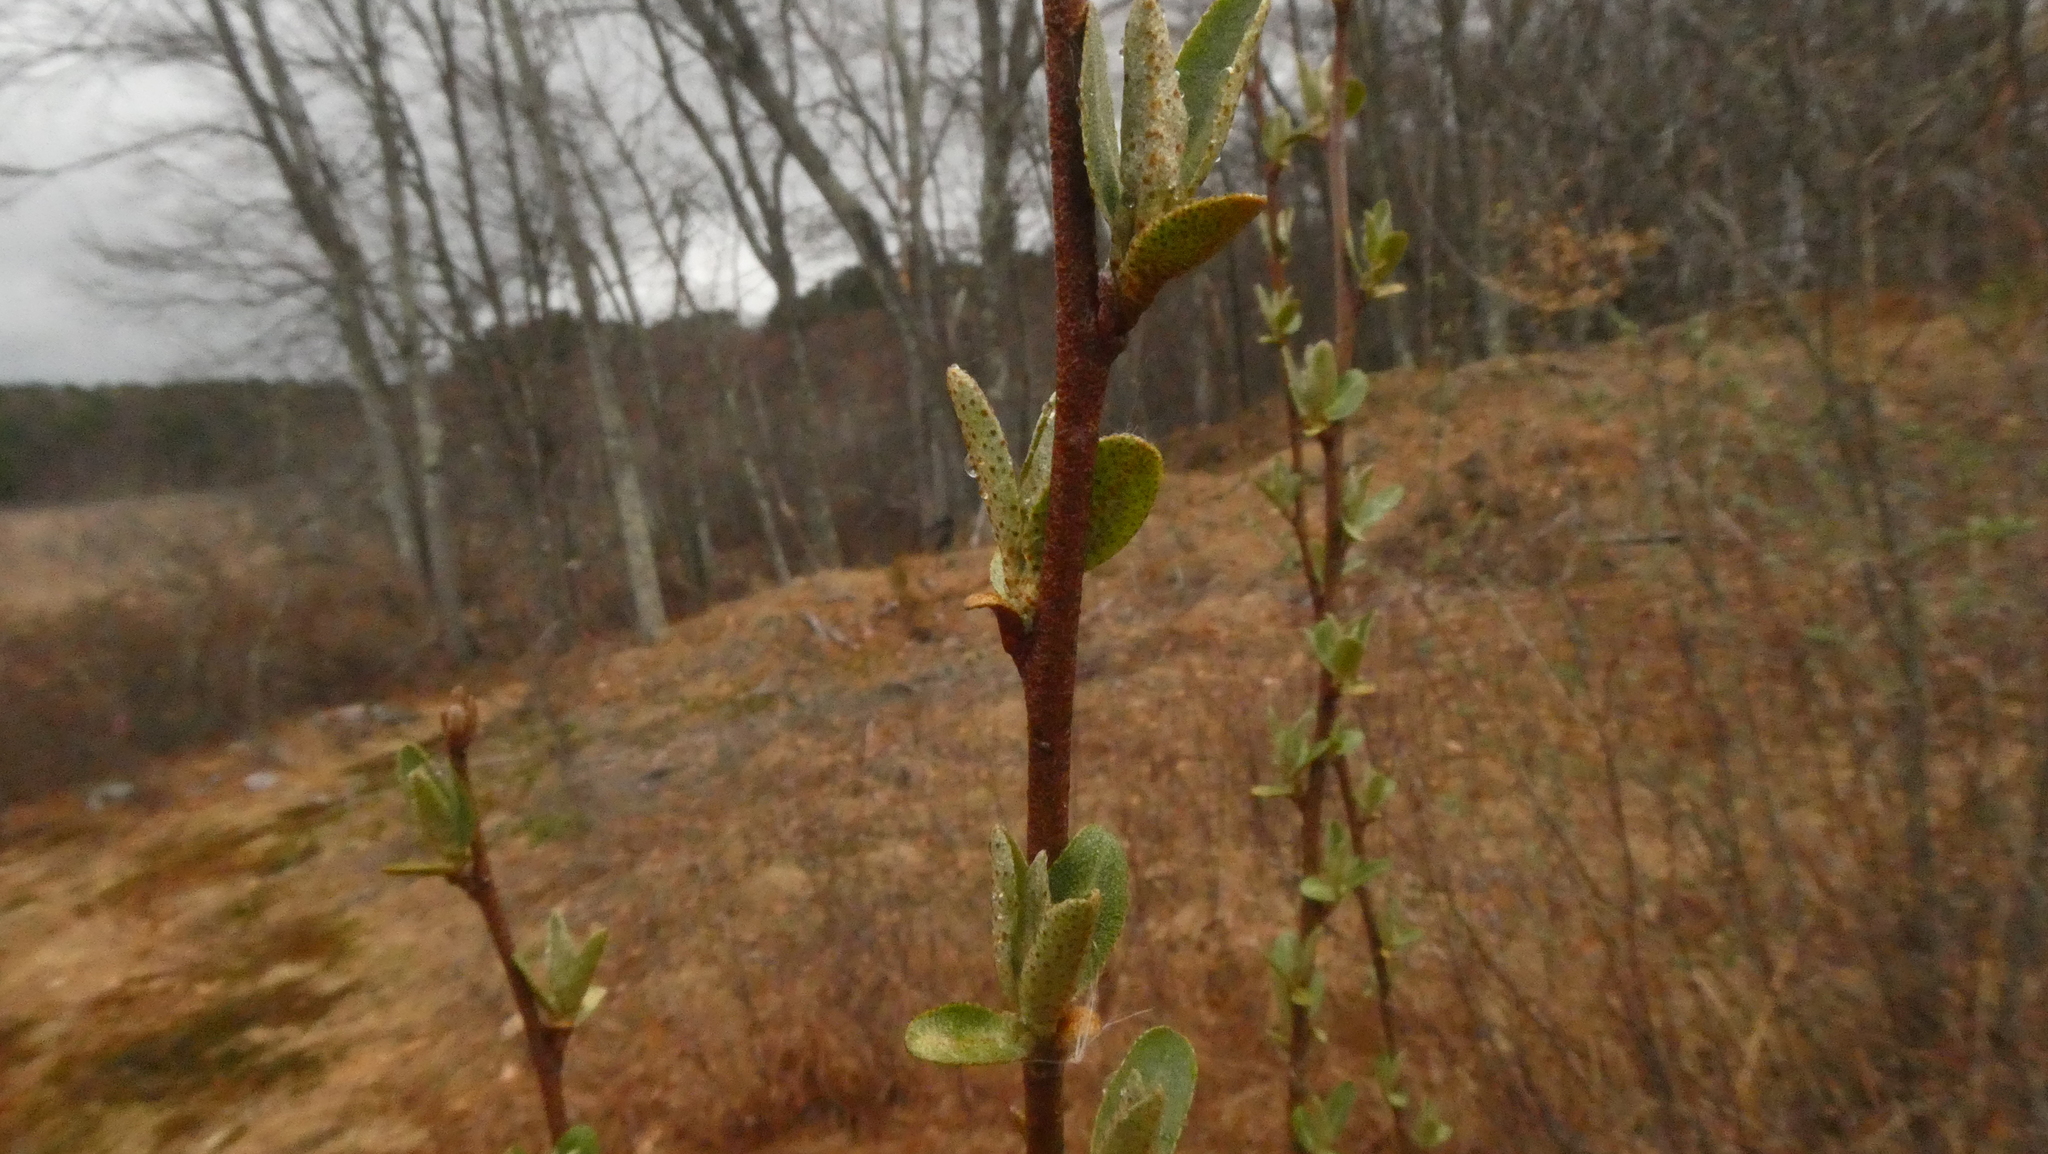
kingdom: Plantae
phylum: Tracheophyta
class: Magnoliopsida
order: Rosales
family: Elaeagnaceae
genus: Elaeagnus
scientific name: Elaeagnus umbellata
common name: Autumn olive
